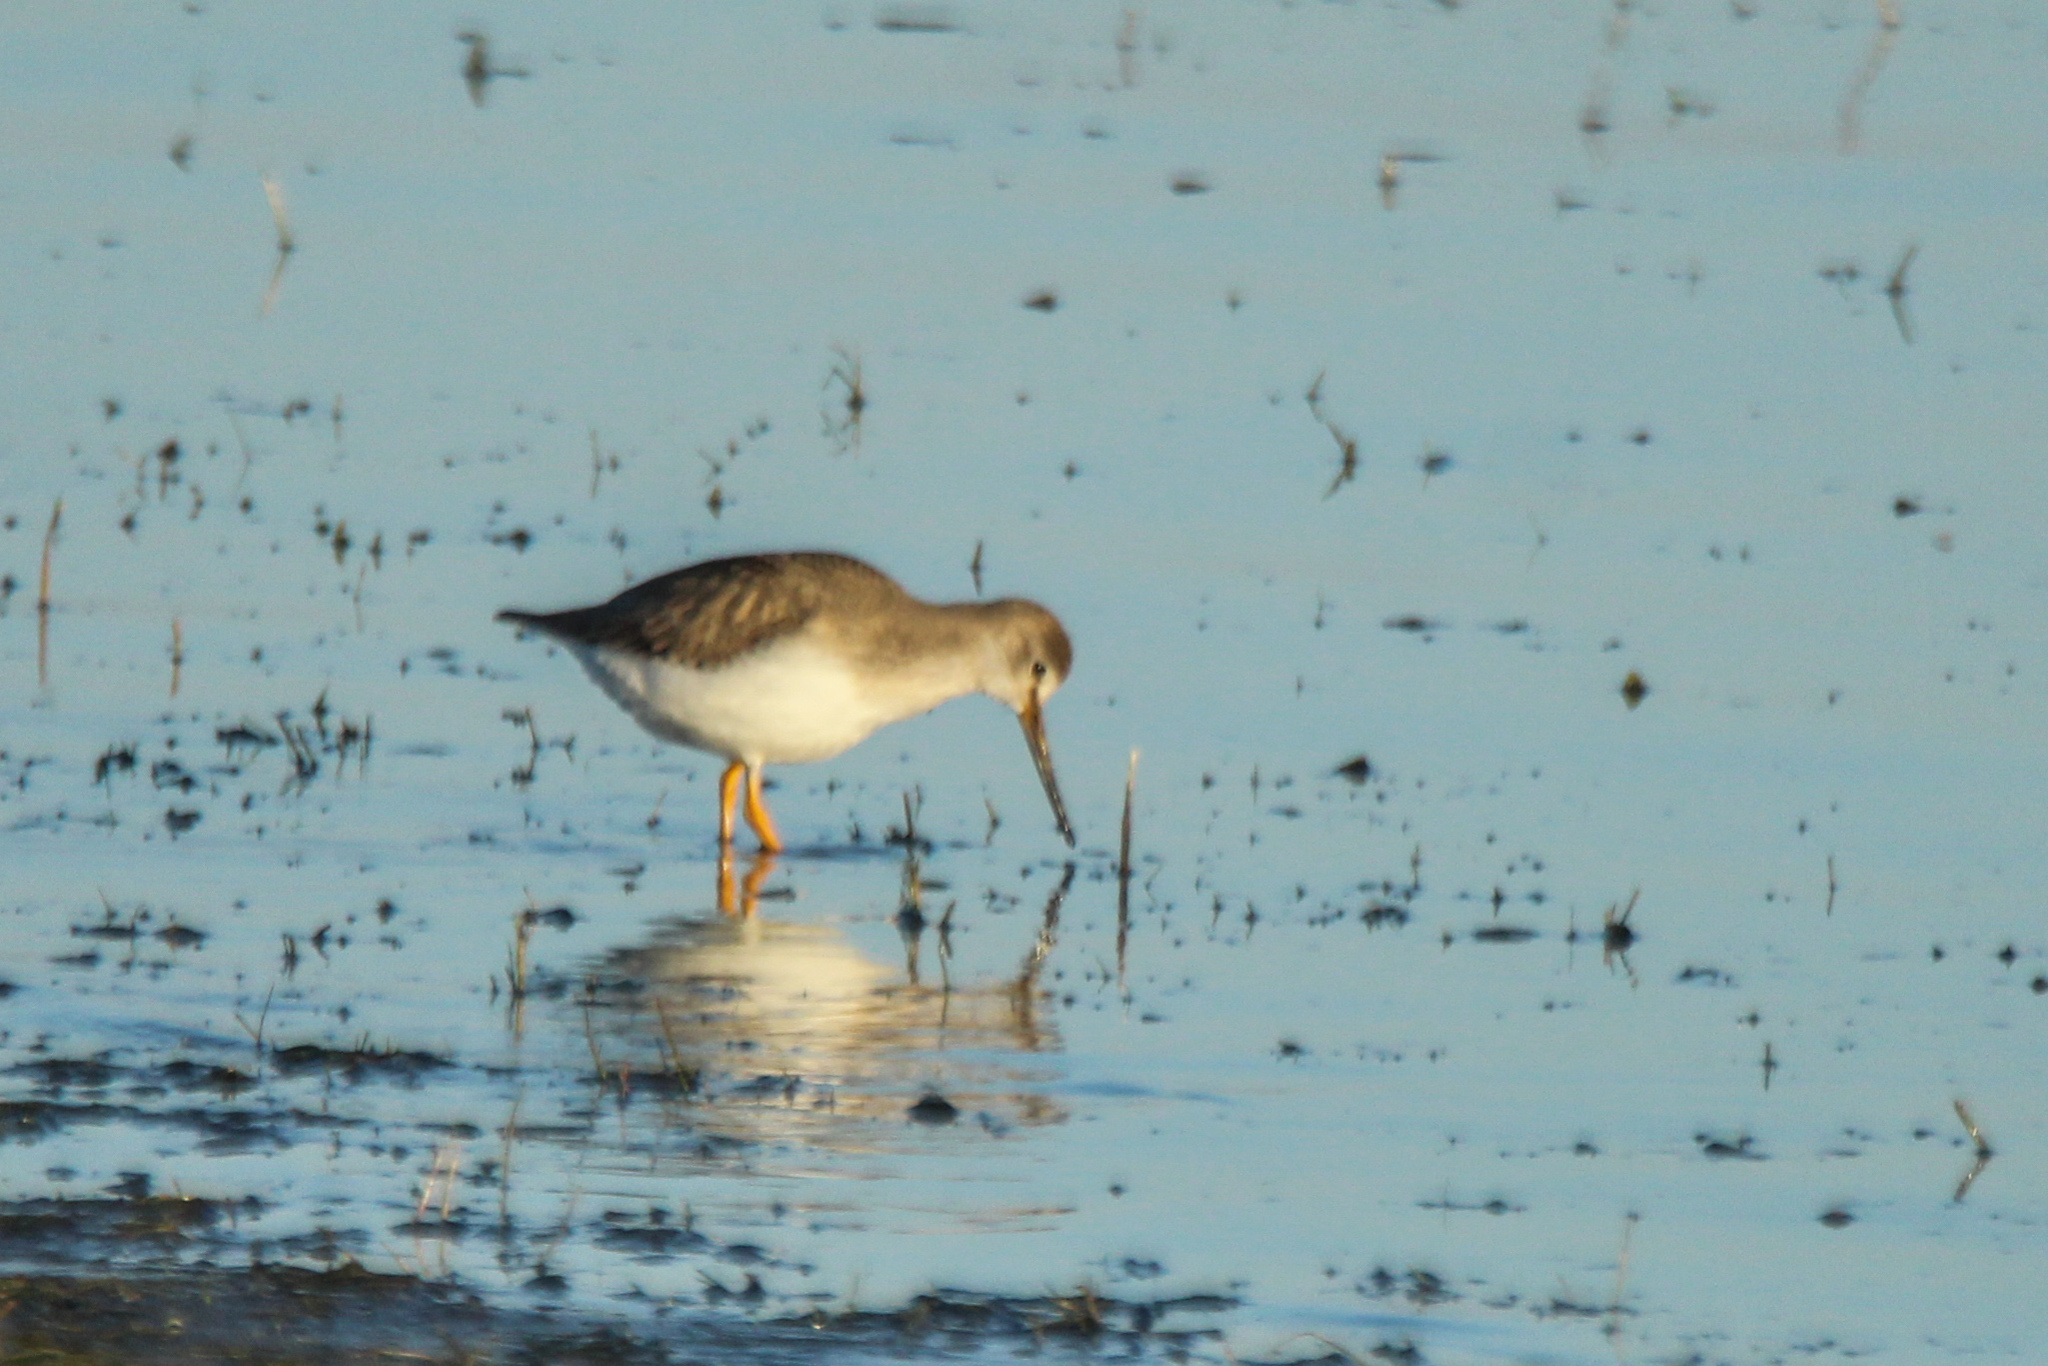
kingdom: Animalia
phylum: Chordata
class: Aves
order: Charadriiformes
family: Scolopacidae
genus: Xenus
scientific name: Xenus cinereus
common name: Terek sandpiper
